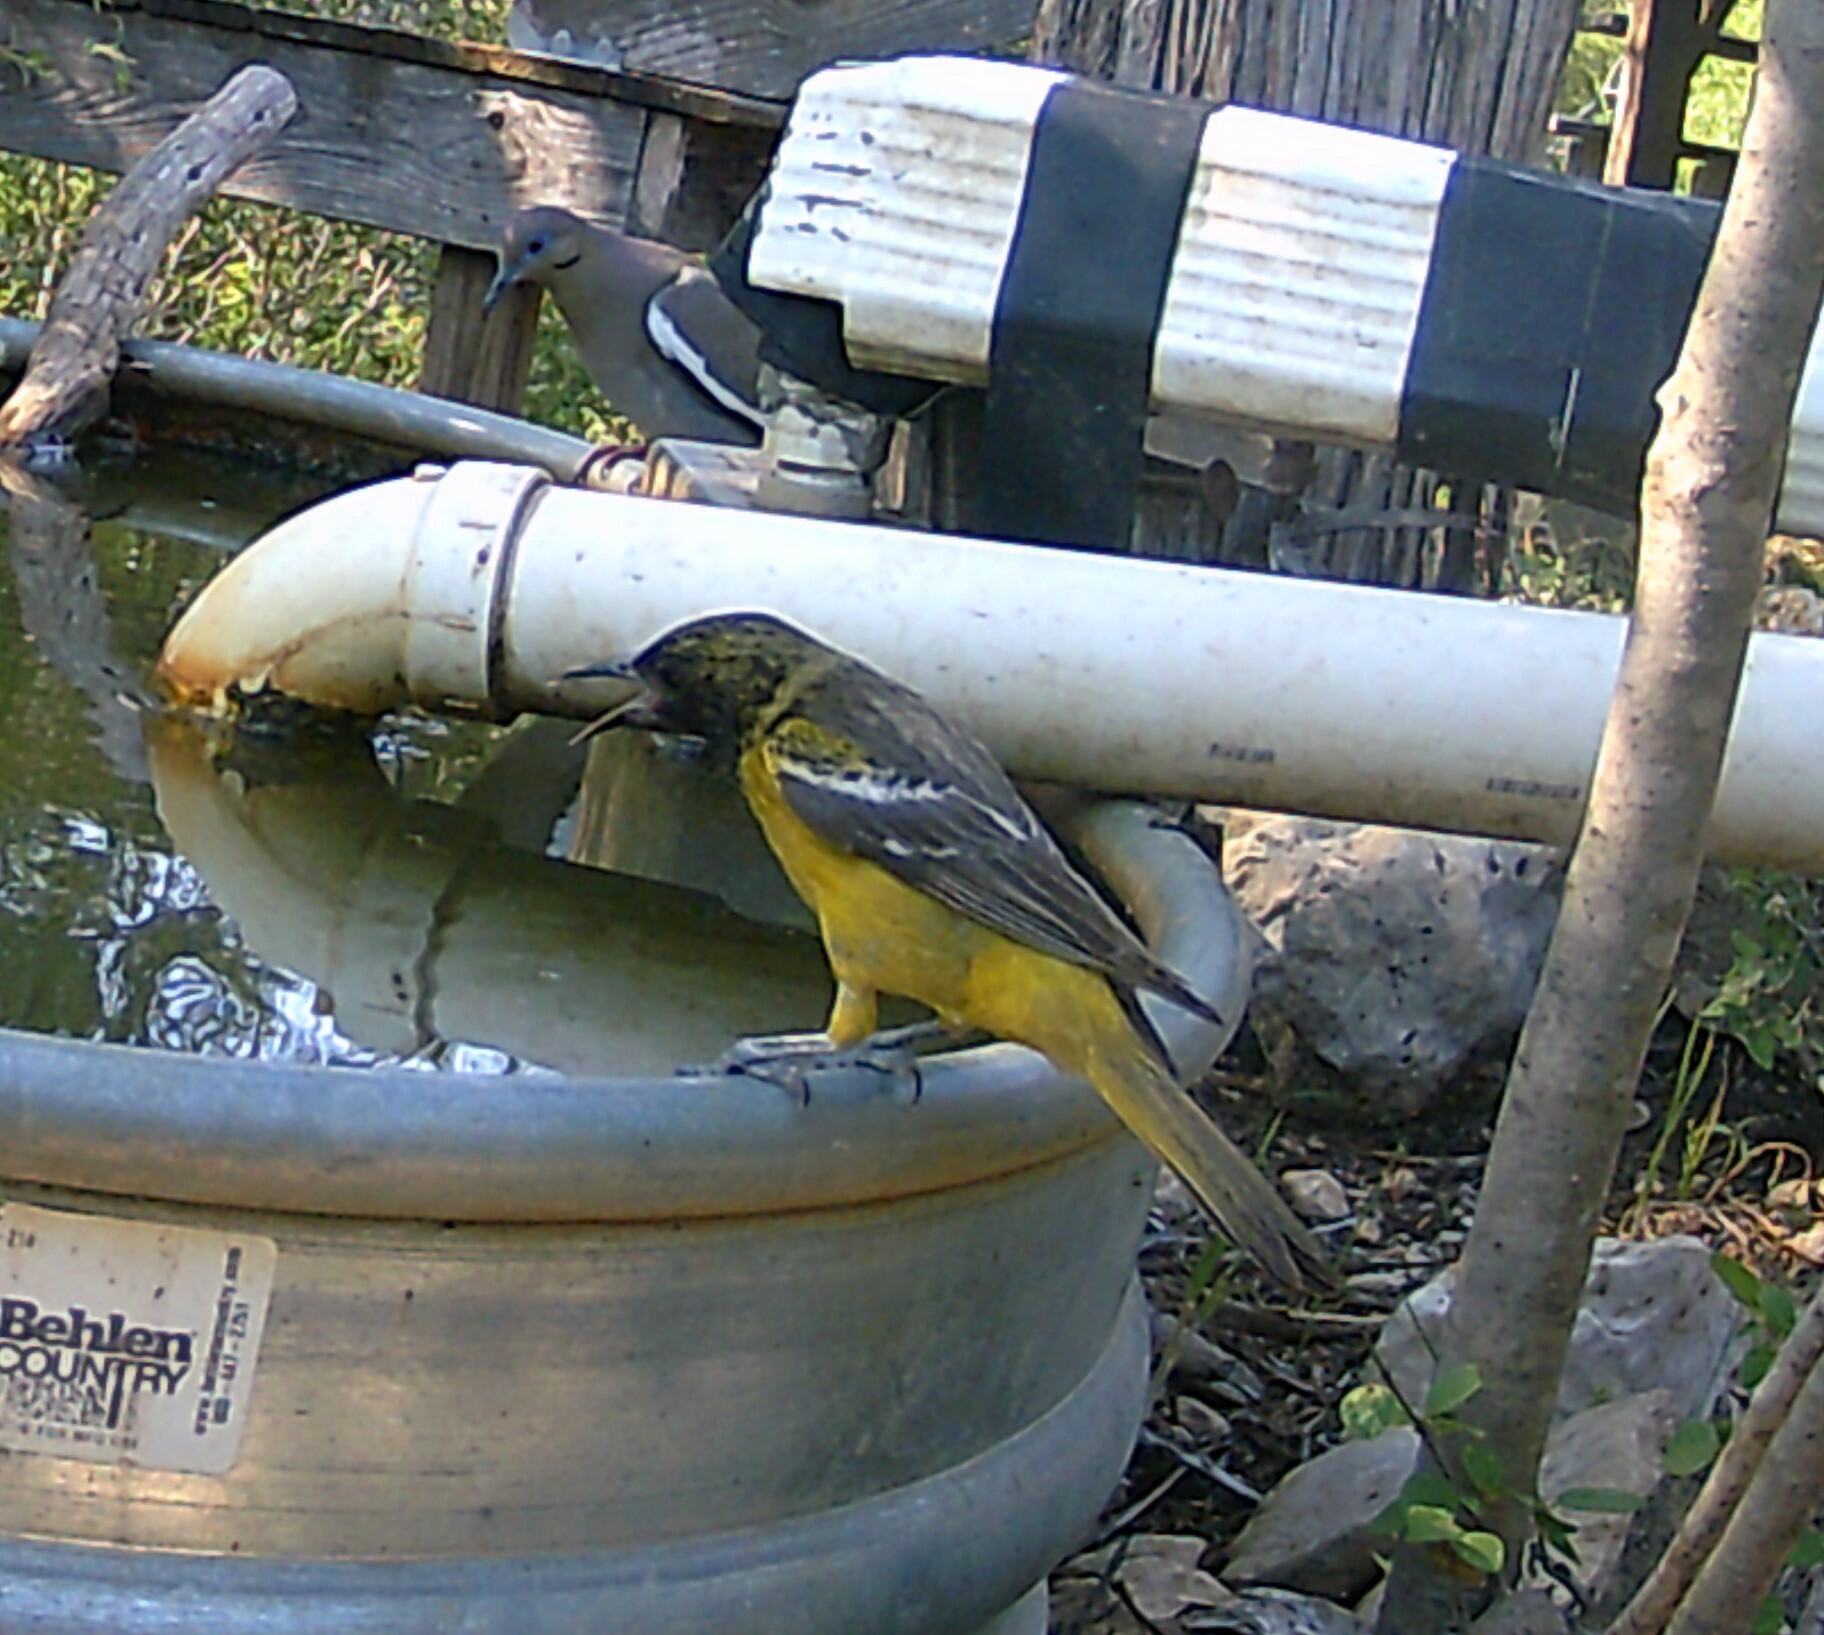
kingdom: Animalia
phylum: Chordata
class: Aves
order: Passeriformes
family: Icteridae
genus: Icterus
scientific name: Icterus parisorum
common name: Scott's oriole
